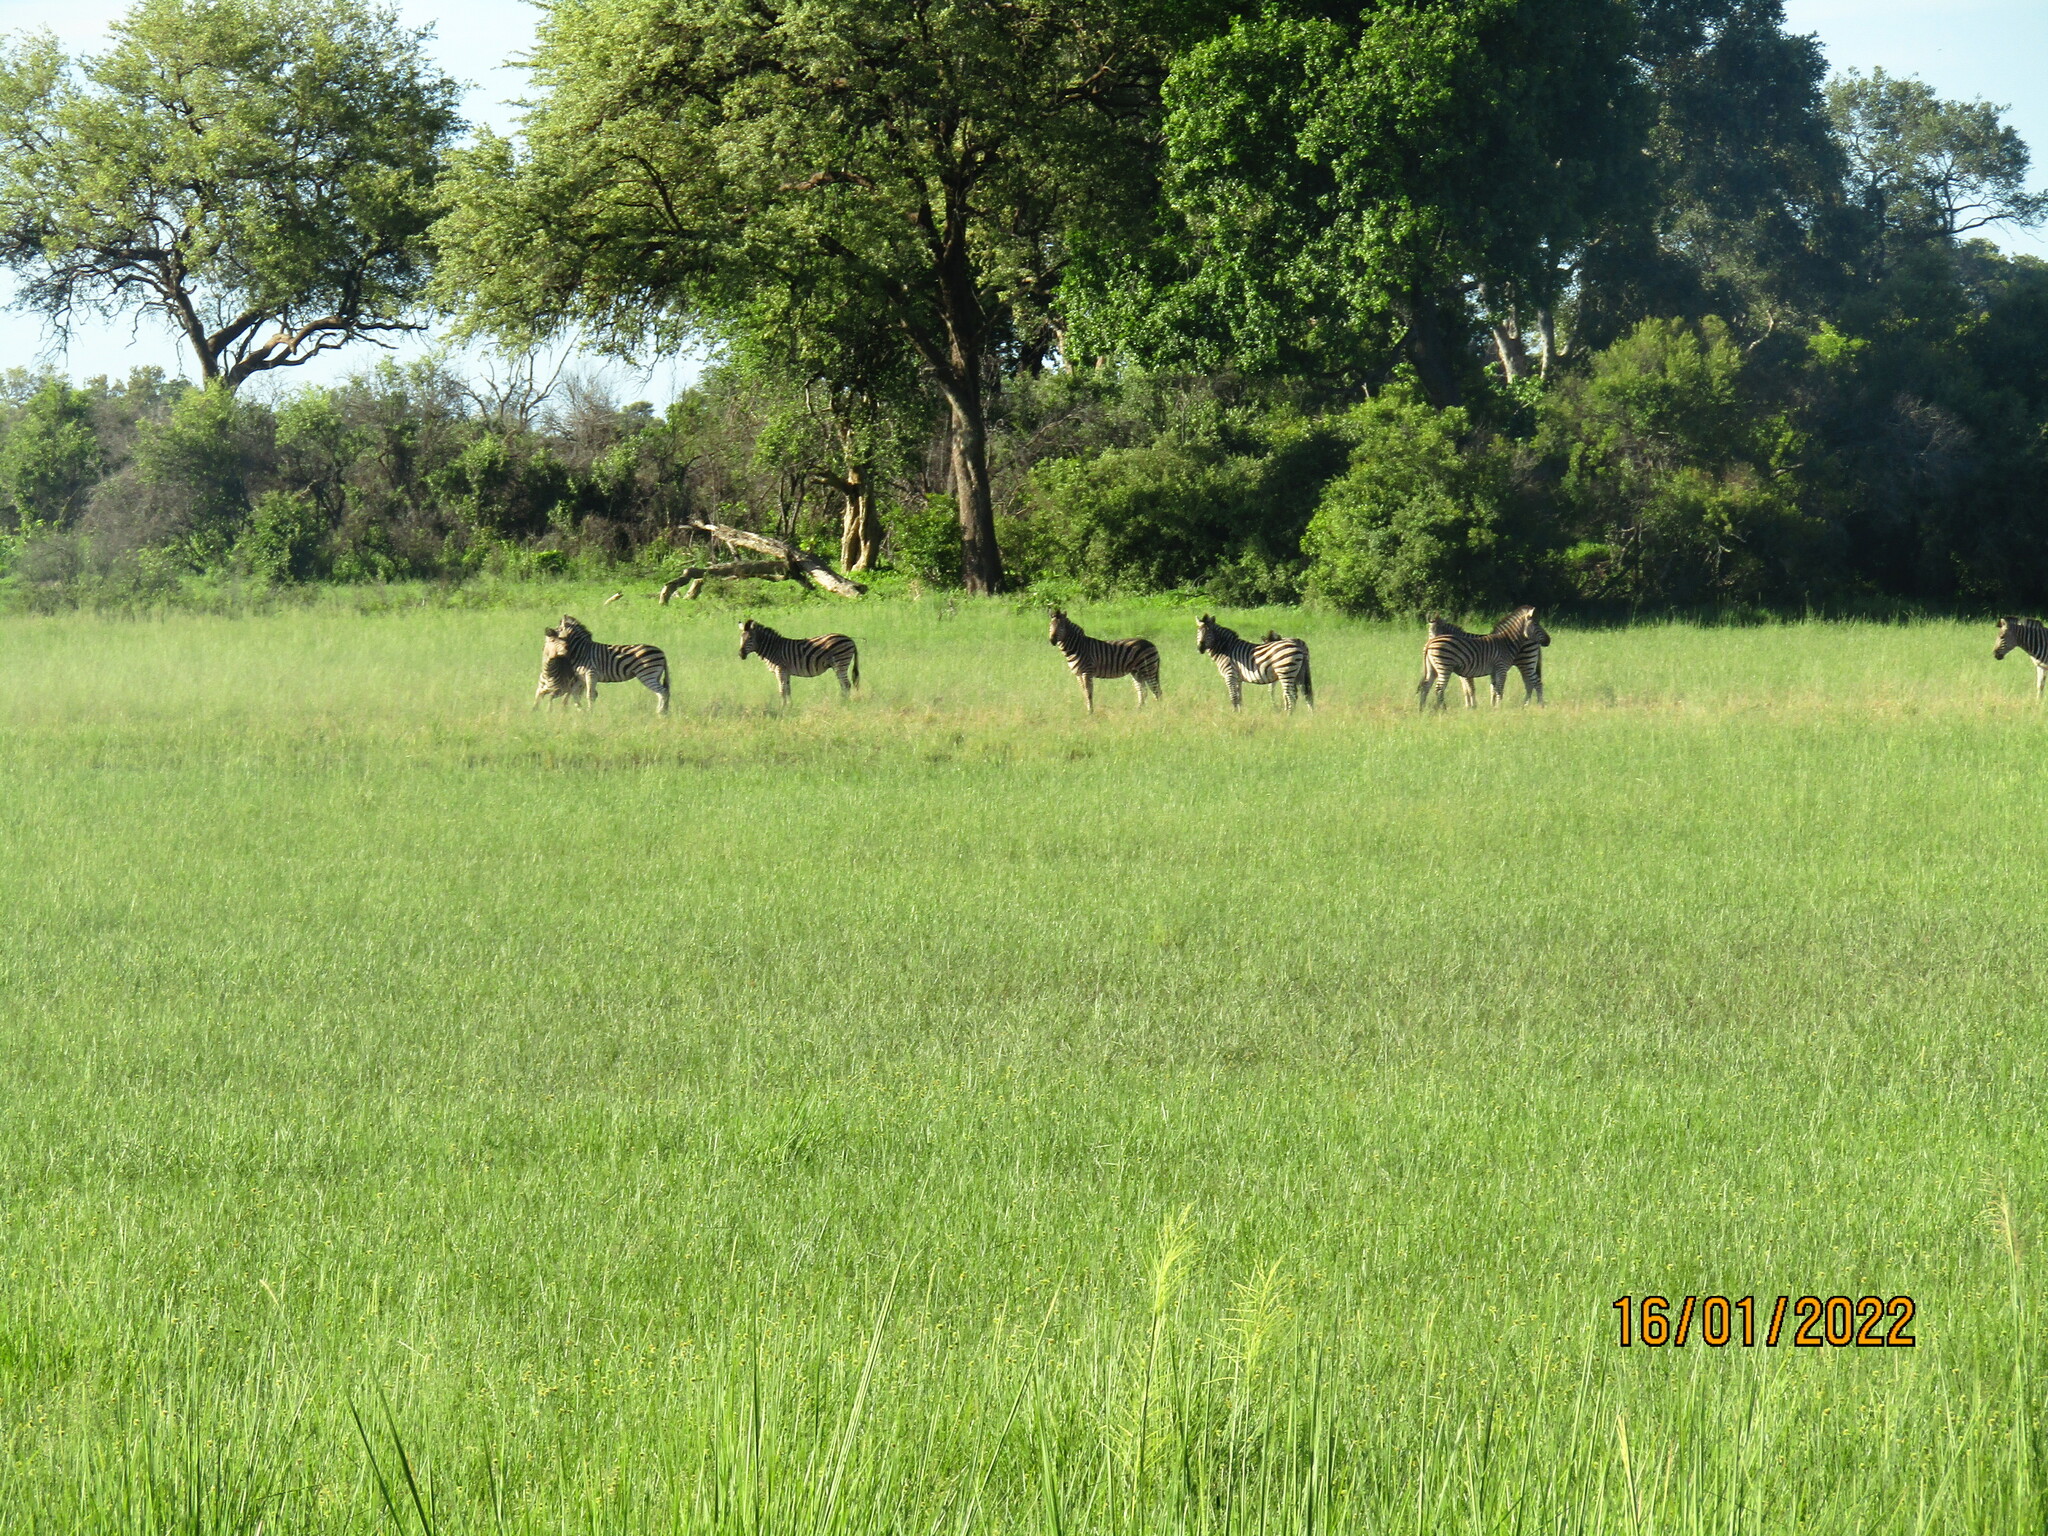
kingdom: Animalia
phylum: Chordata
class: Mammalia
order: Perissodactyla
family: Equidae
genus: Equus
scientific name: Equus quagga
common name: Plains zebra
